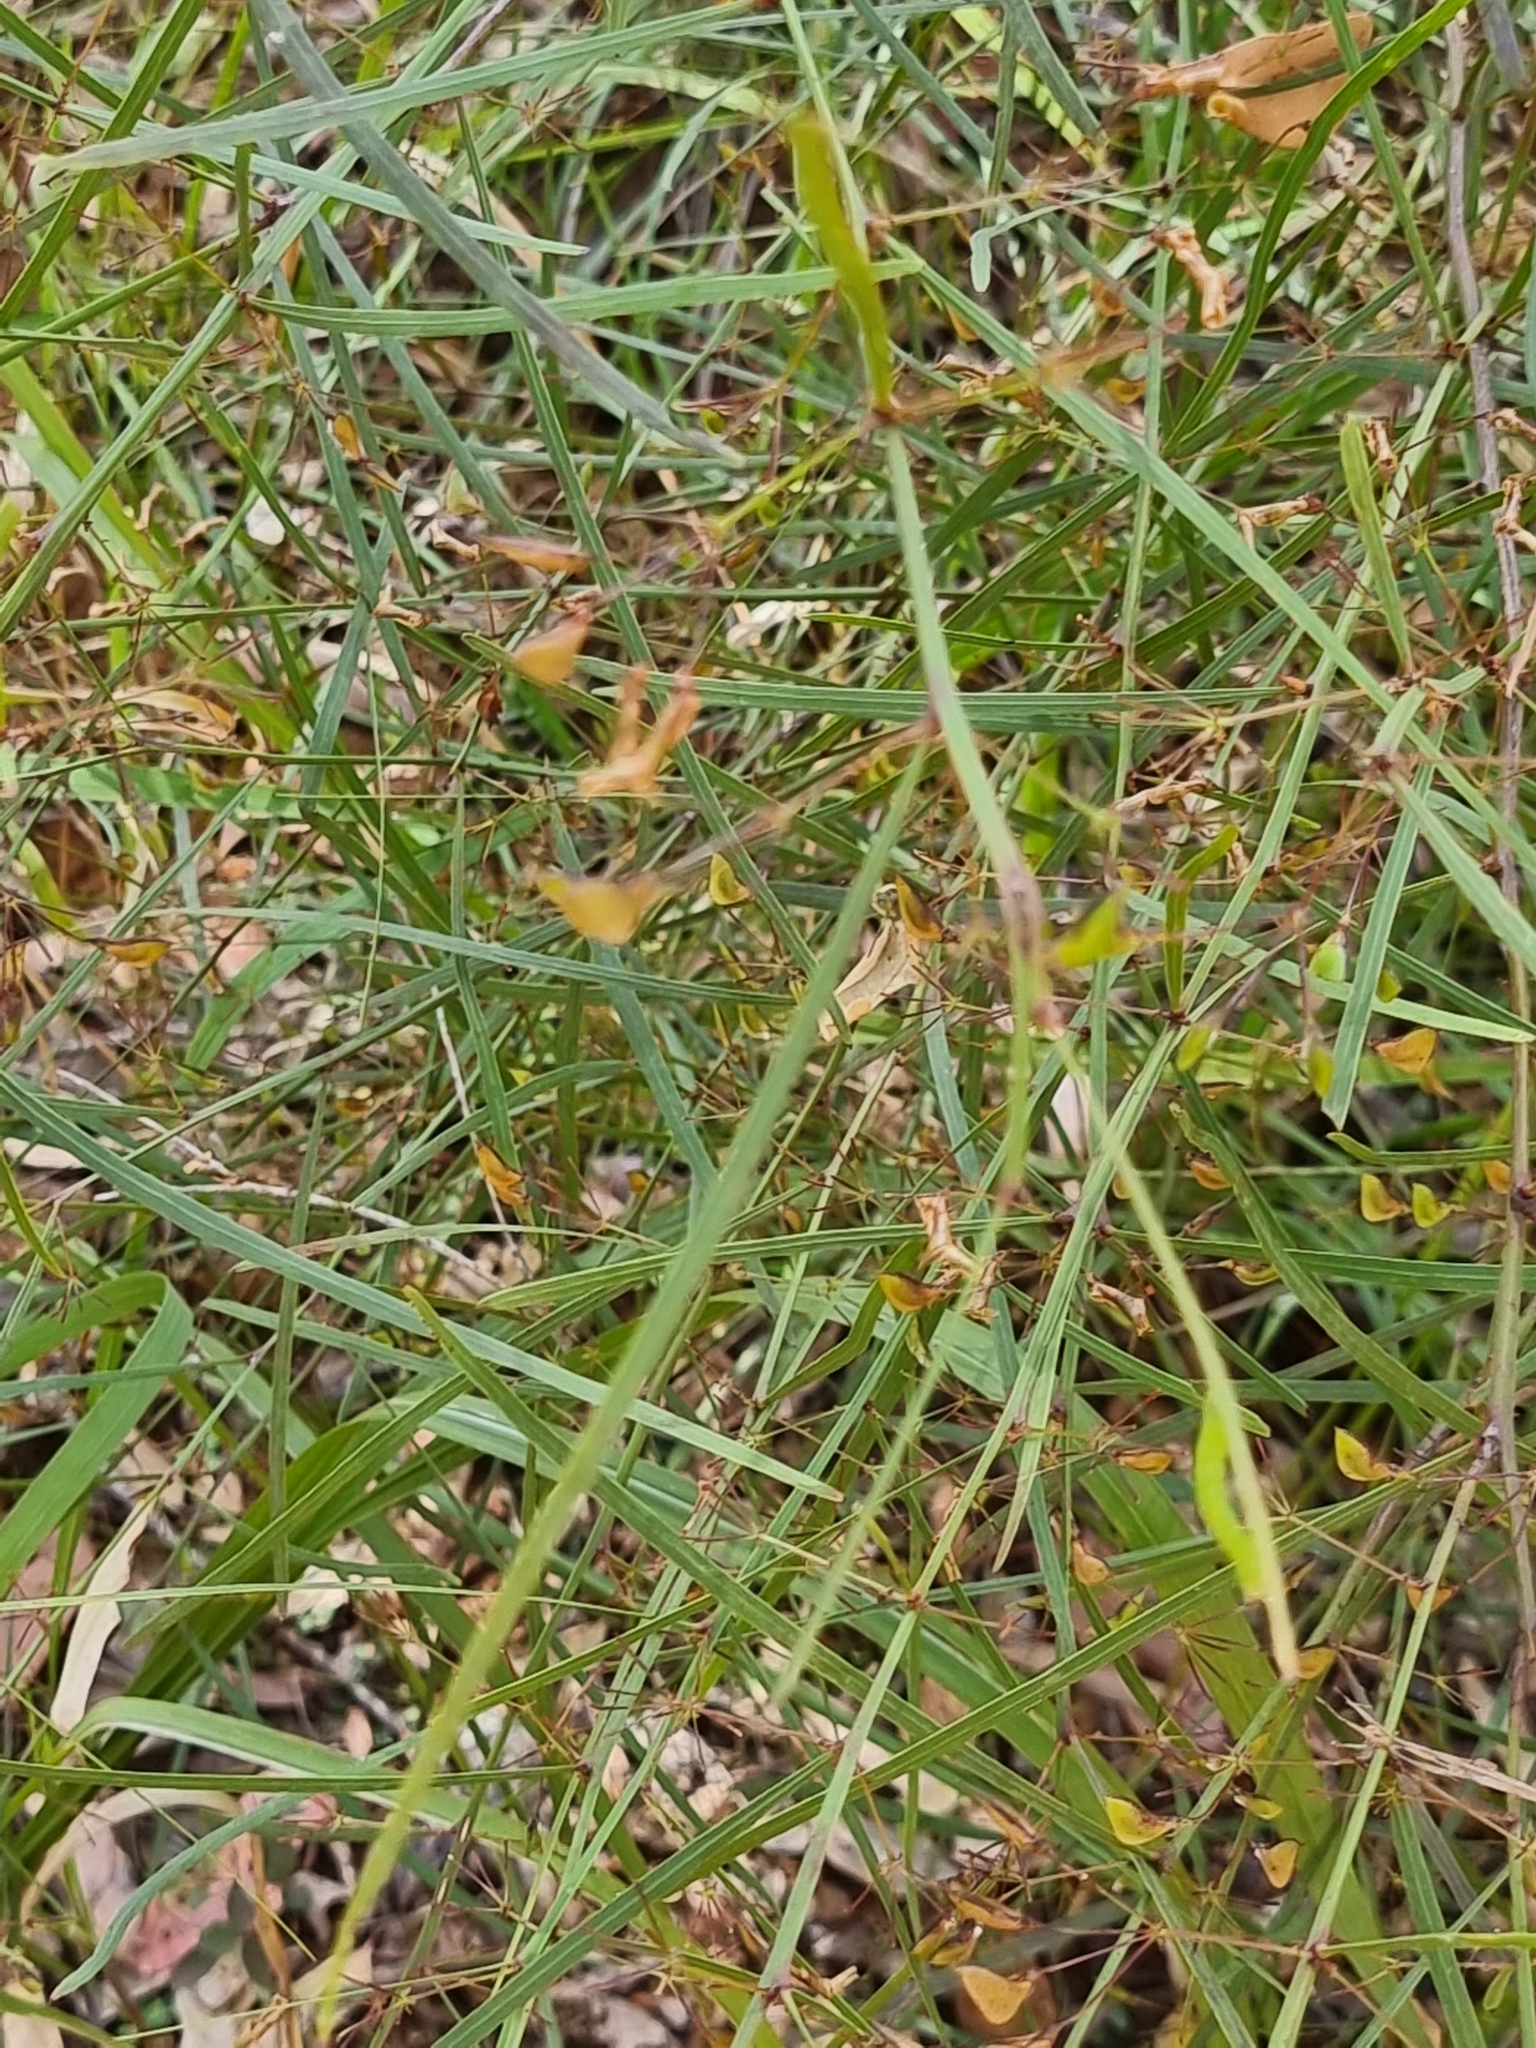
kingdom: Plantae
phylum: Tracheophyta
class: Magnoliopsida
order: Fabales
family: Fabaceae
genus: Daviesia
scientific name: Daviesia wyattiana
